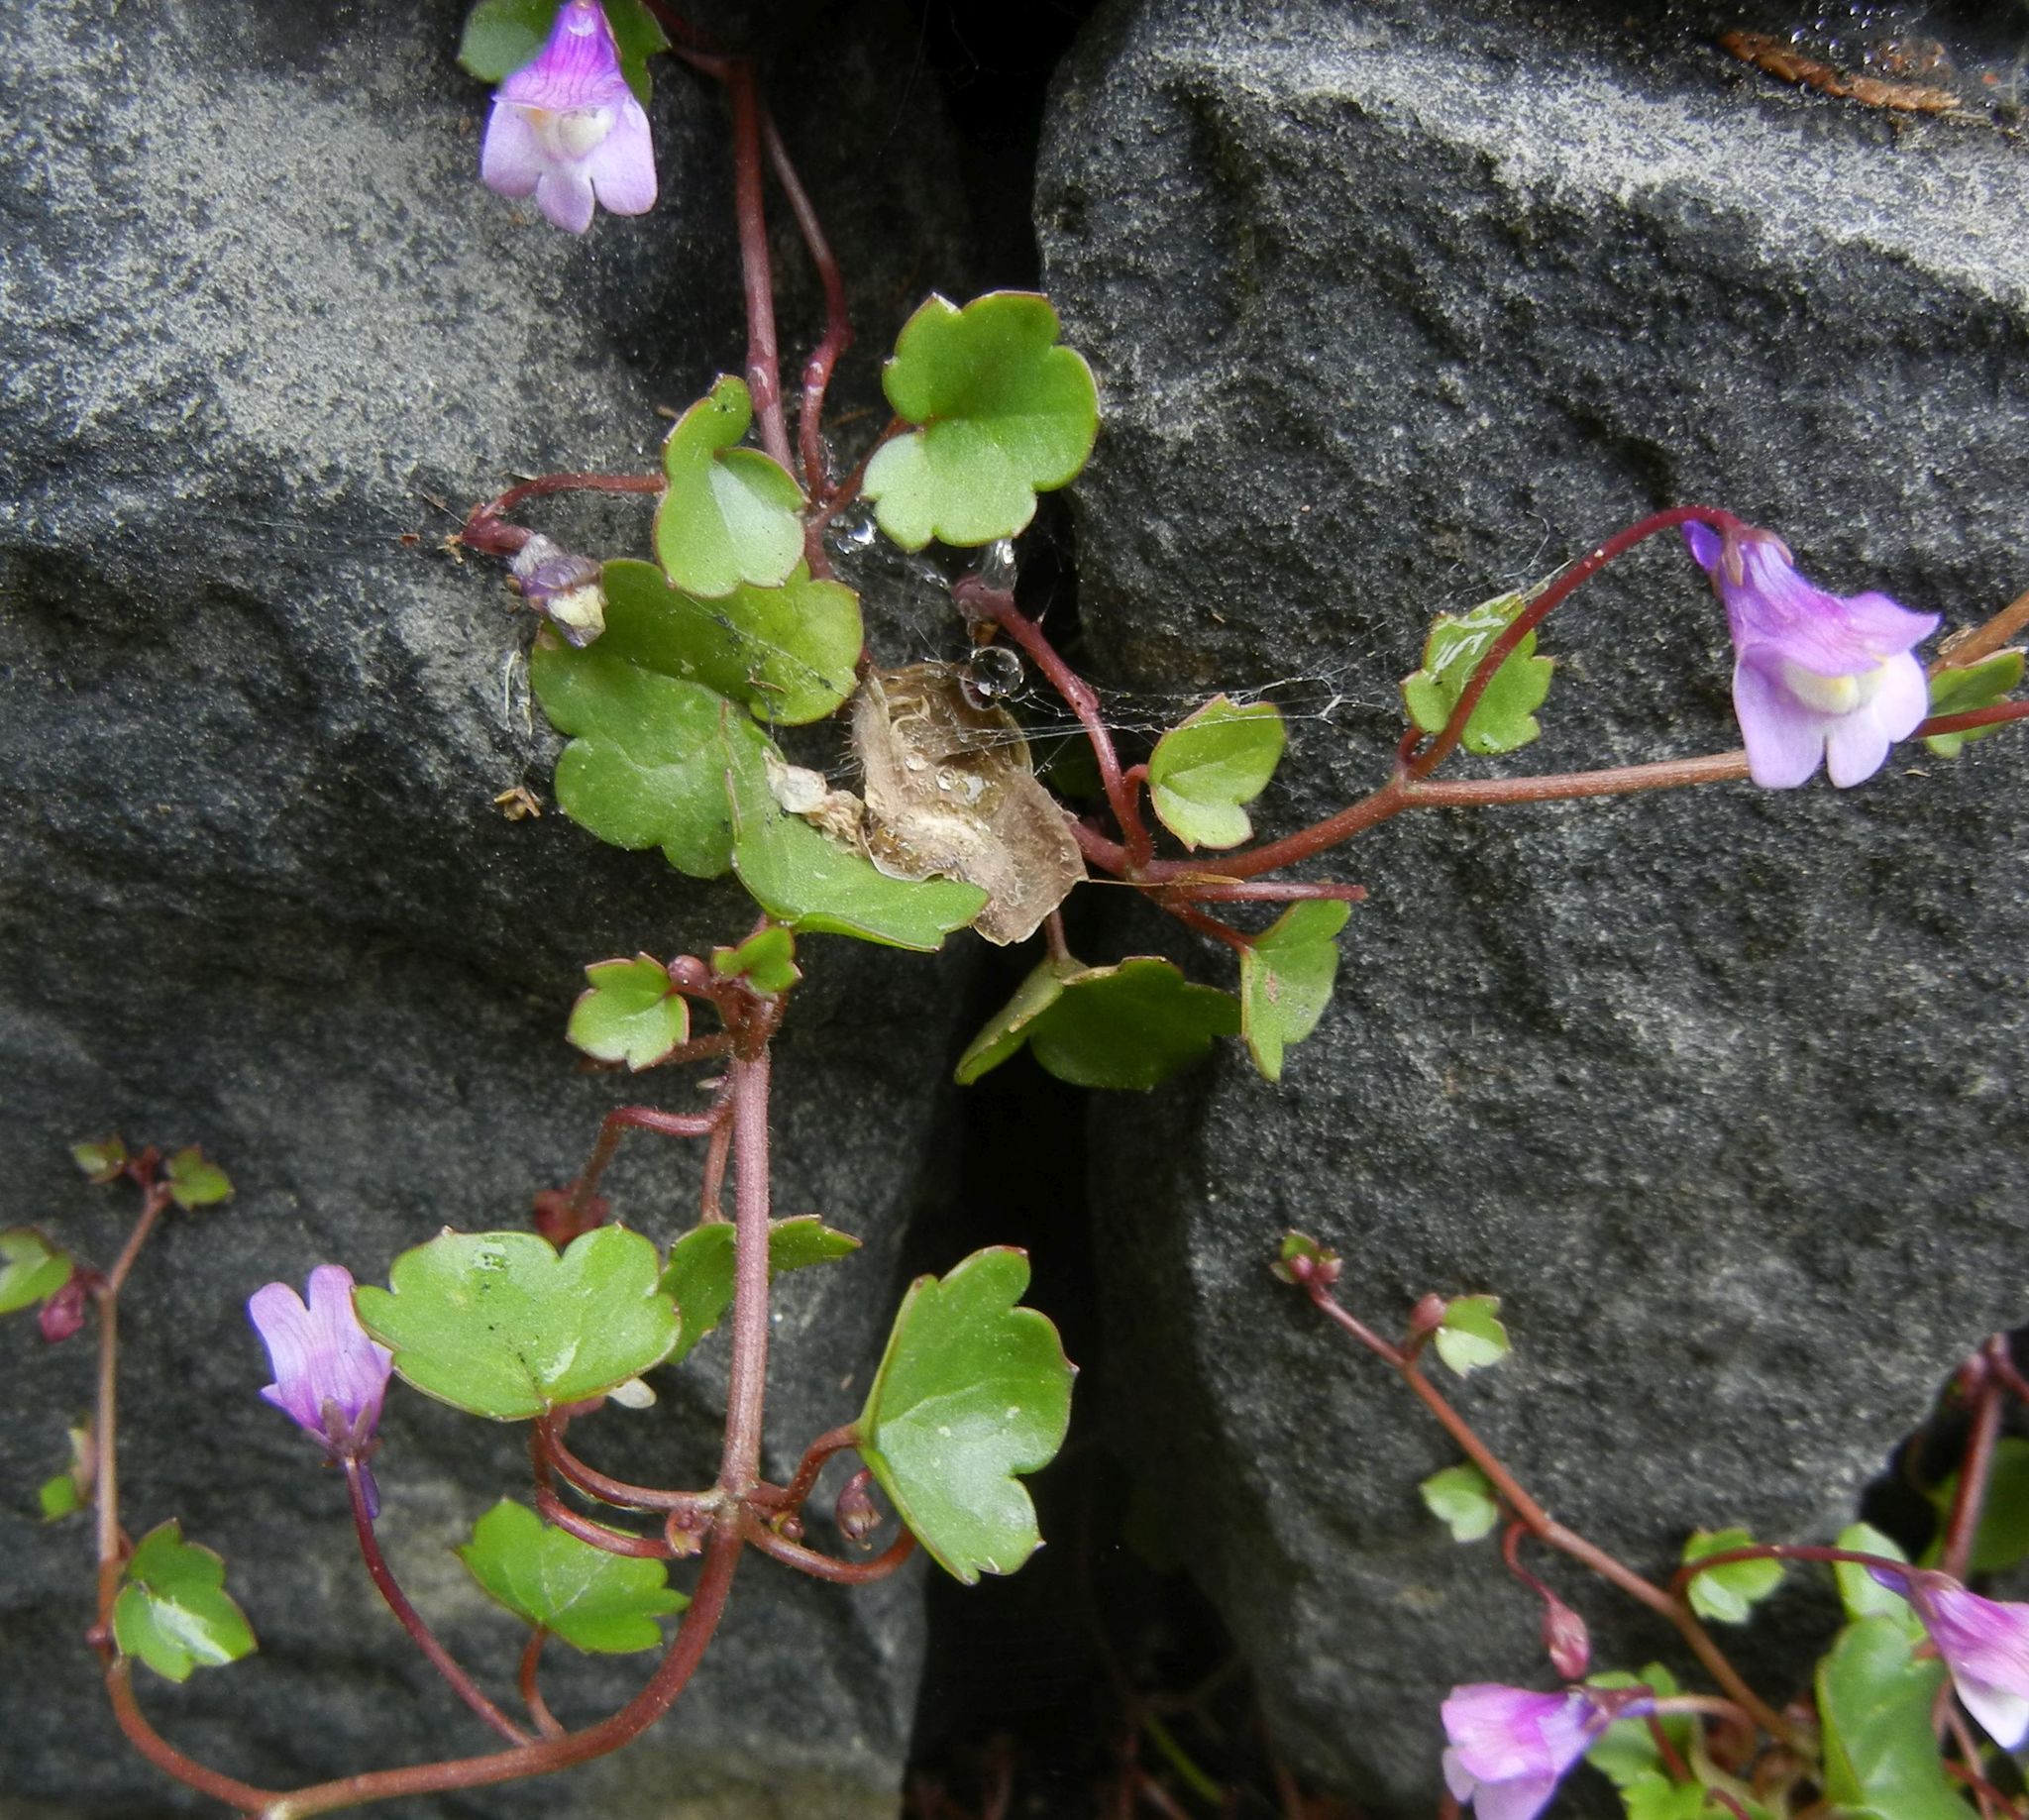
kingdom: Plantae
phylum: Tracheophyta
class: Magnoliopsida
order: Lamiales
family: Plantaginaceae
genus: Cymbalaria
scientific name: Cymbalaria muralis
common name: Ivy-leaved toadflax
